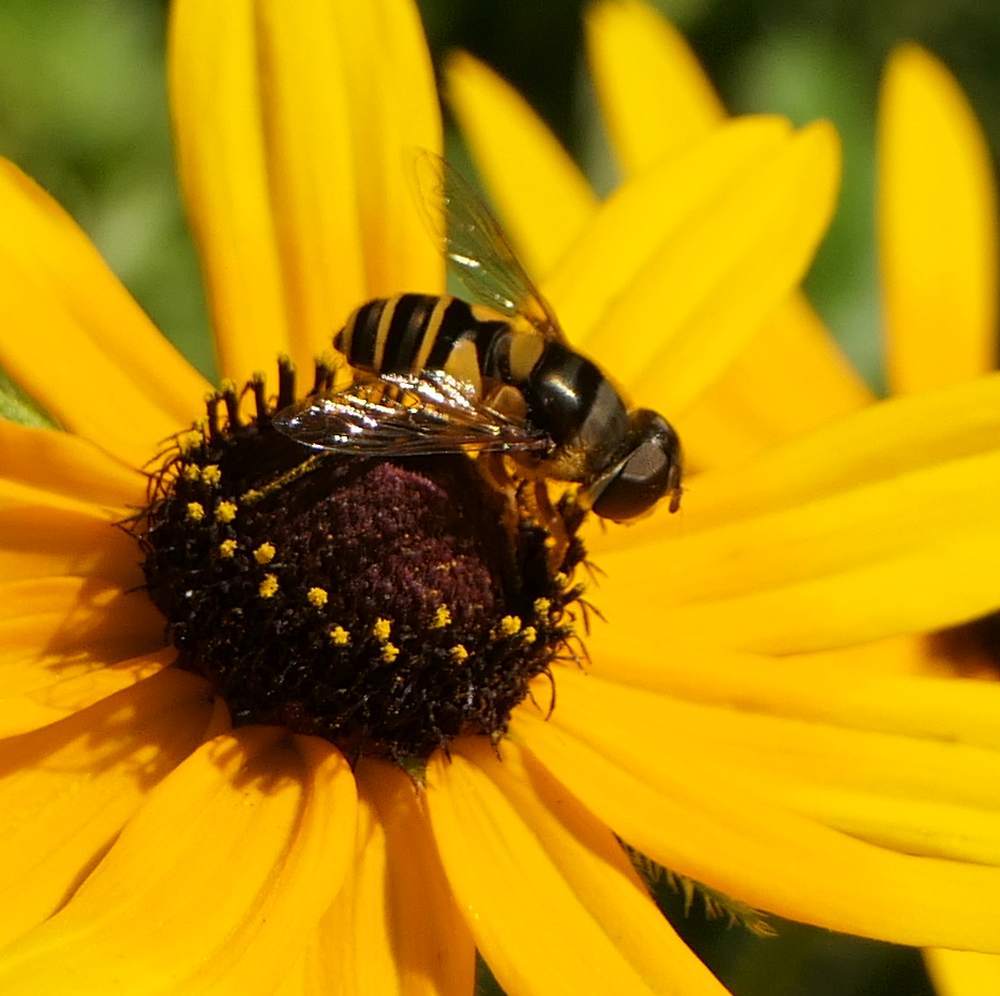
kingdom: Animalia
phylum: Arthropoda
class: Insecta
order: Diptera
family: Syrphidae
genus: Eristalis
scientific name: Eristalis transversa
